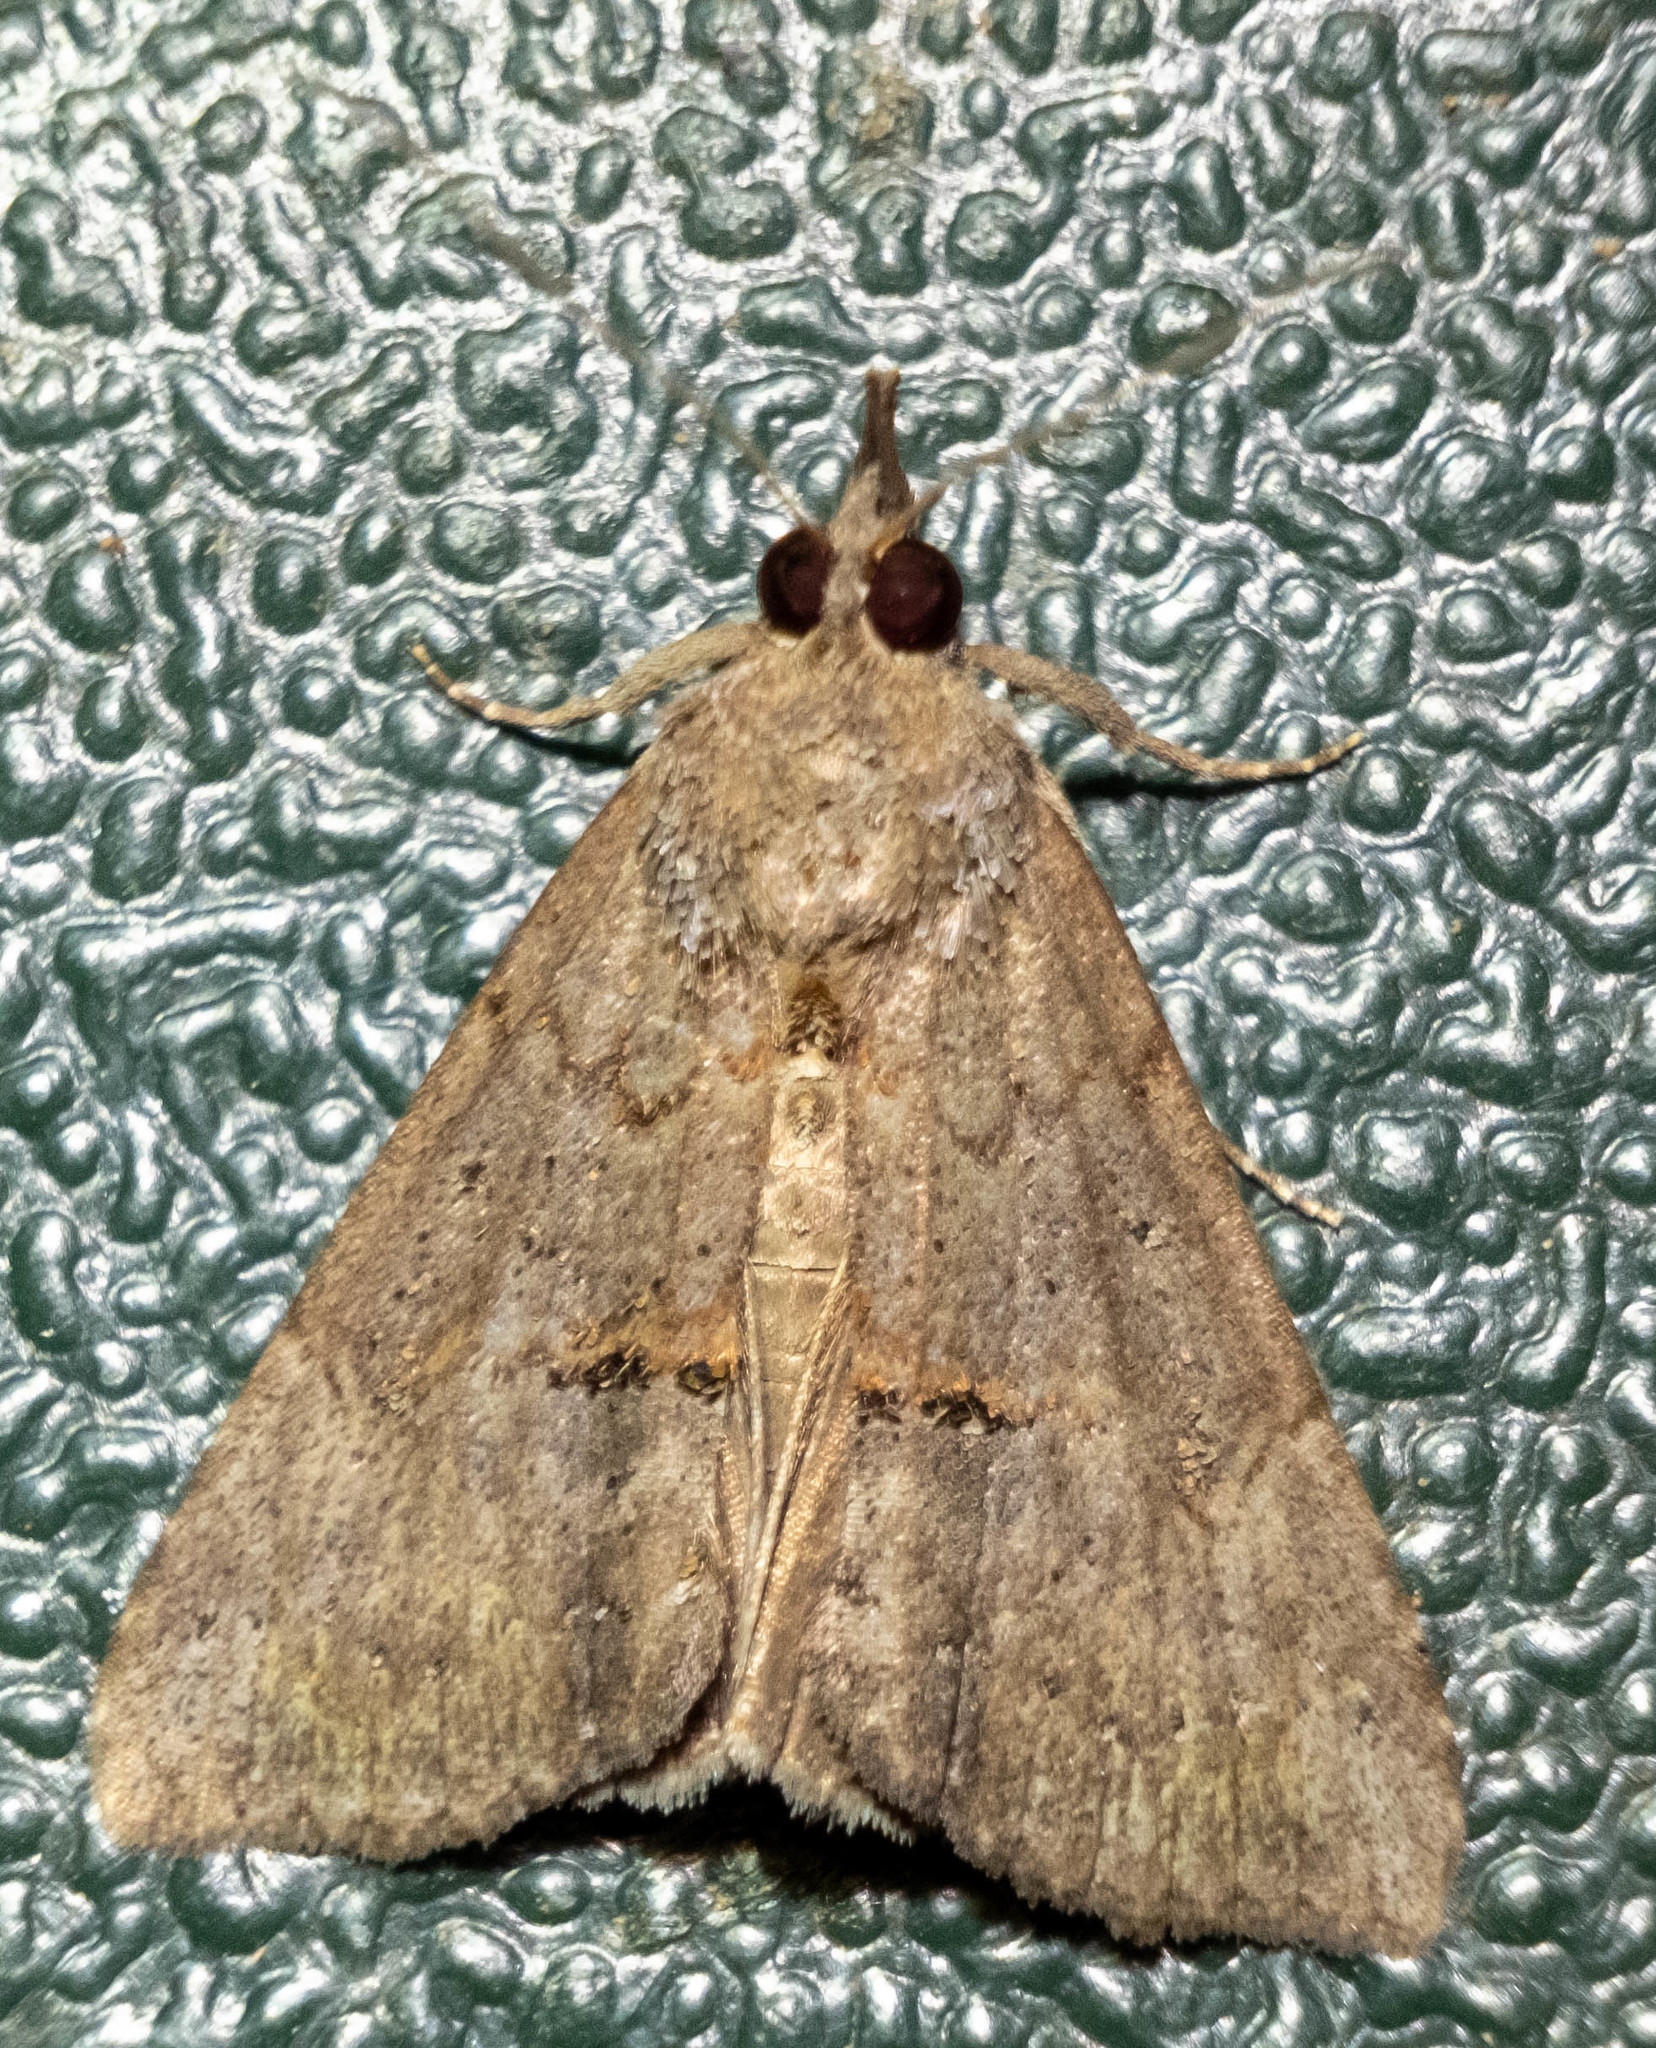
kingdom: Animalia
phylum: Arthropoda
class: Insecta
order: Lepidoptera
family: Erebidae
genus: Hypena
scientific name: Hypena scabra
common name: Green cloverworm
